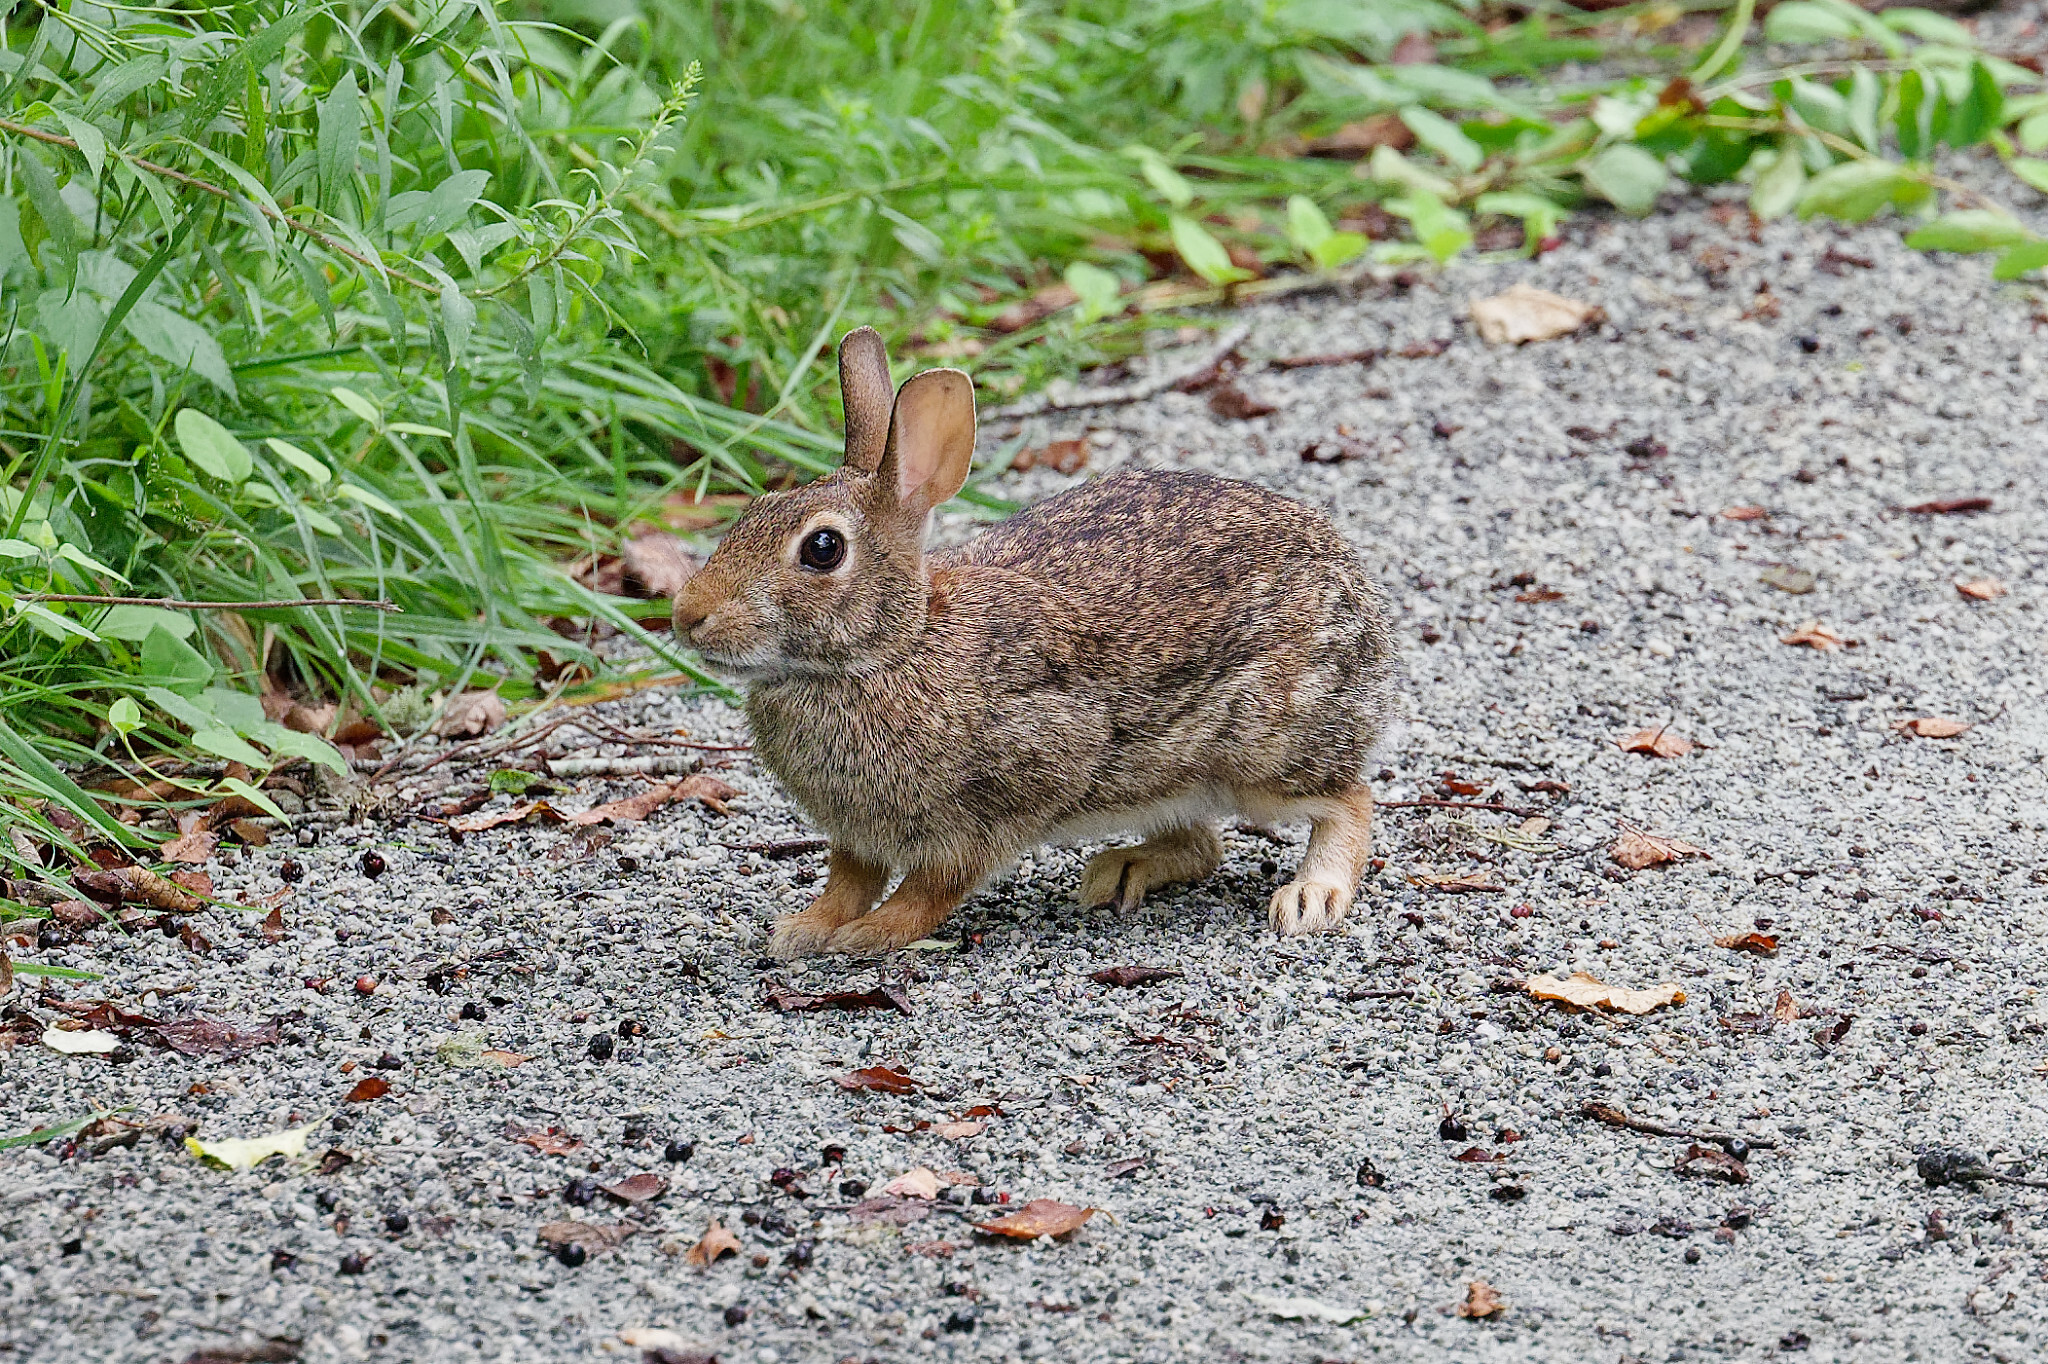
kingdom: Animalia
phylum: Chordata
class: Mammalia
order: Lagomorpha
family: Leporidae
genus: Sylvilagus
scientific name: Sylvilagus floridanus
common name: Eastern cottontail
